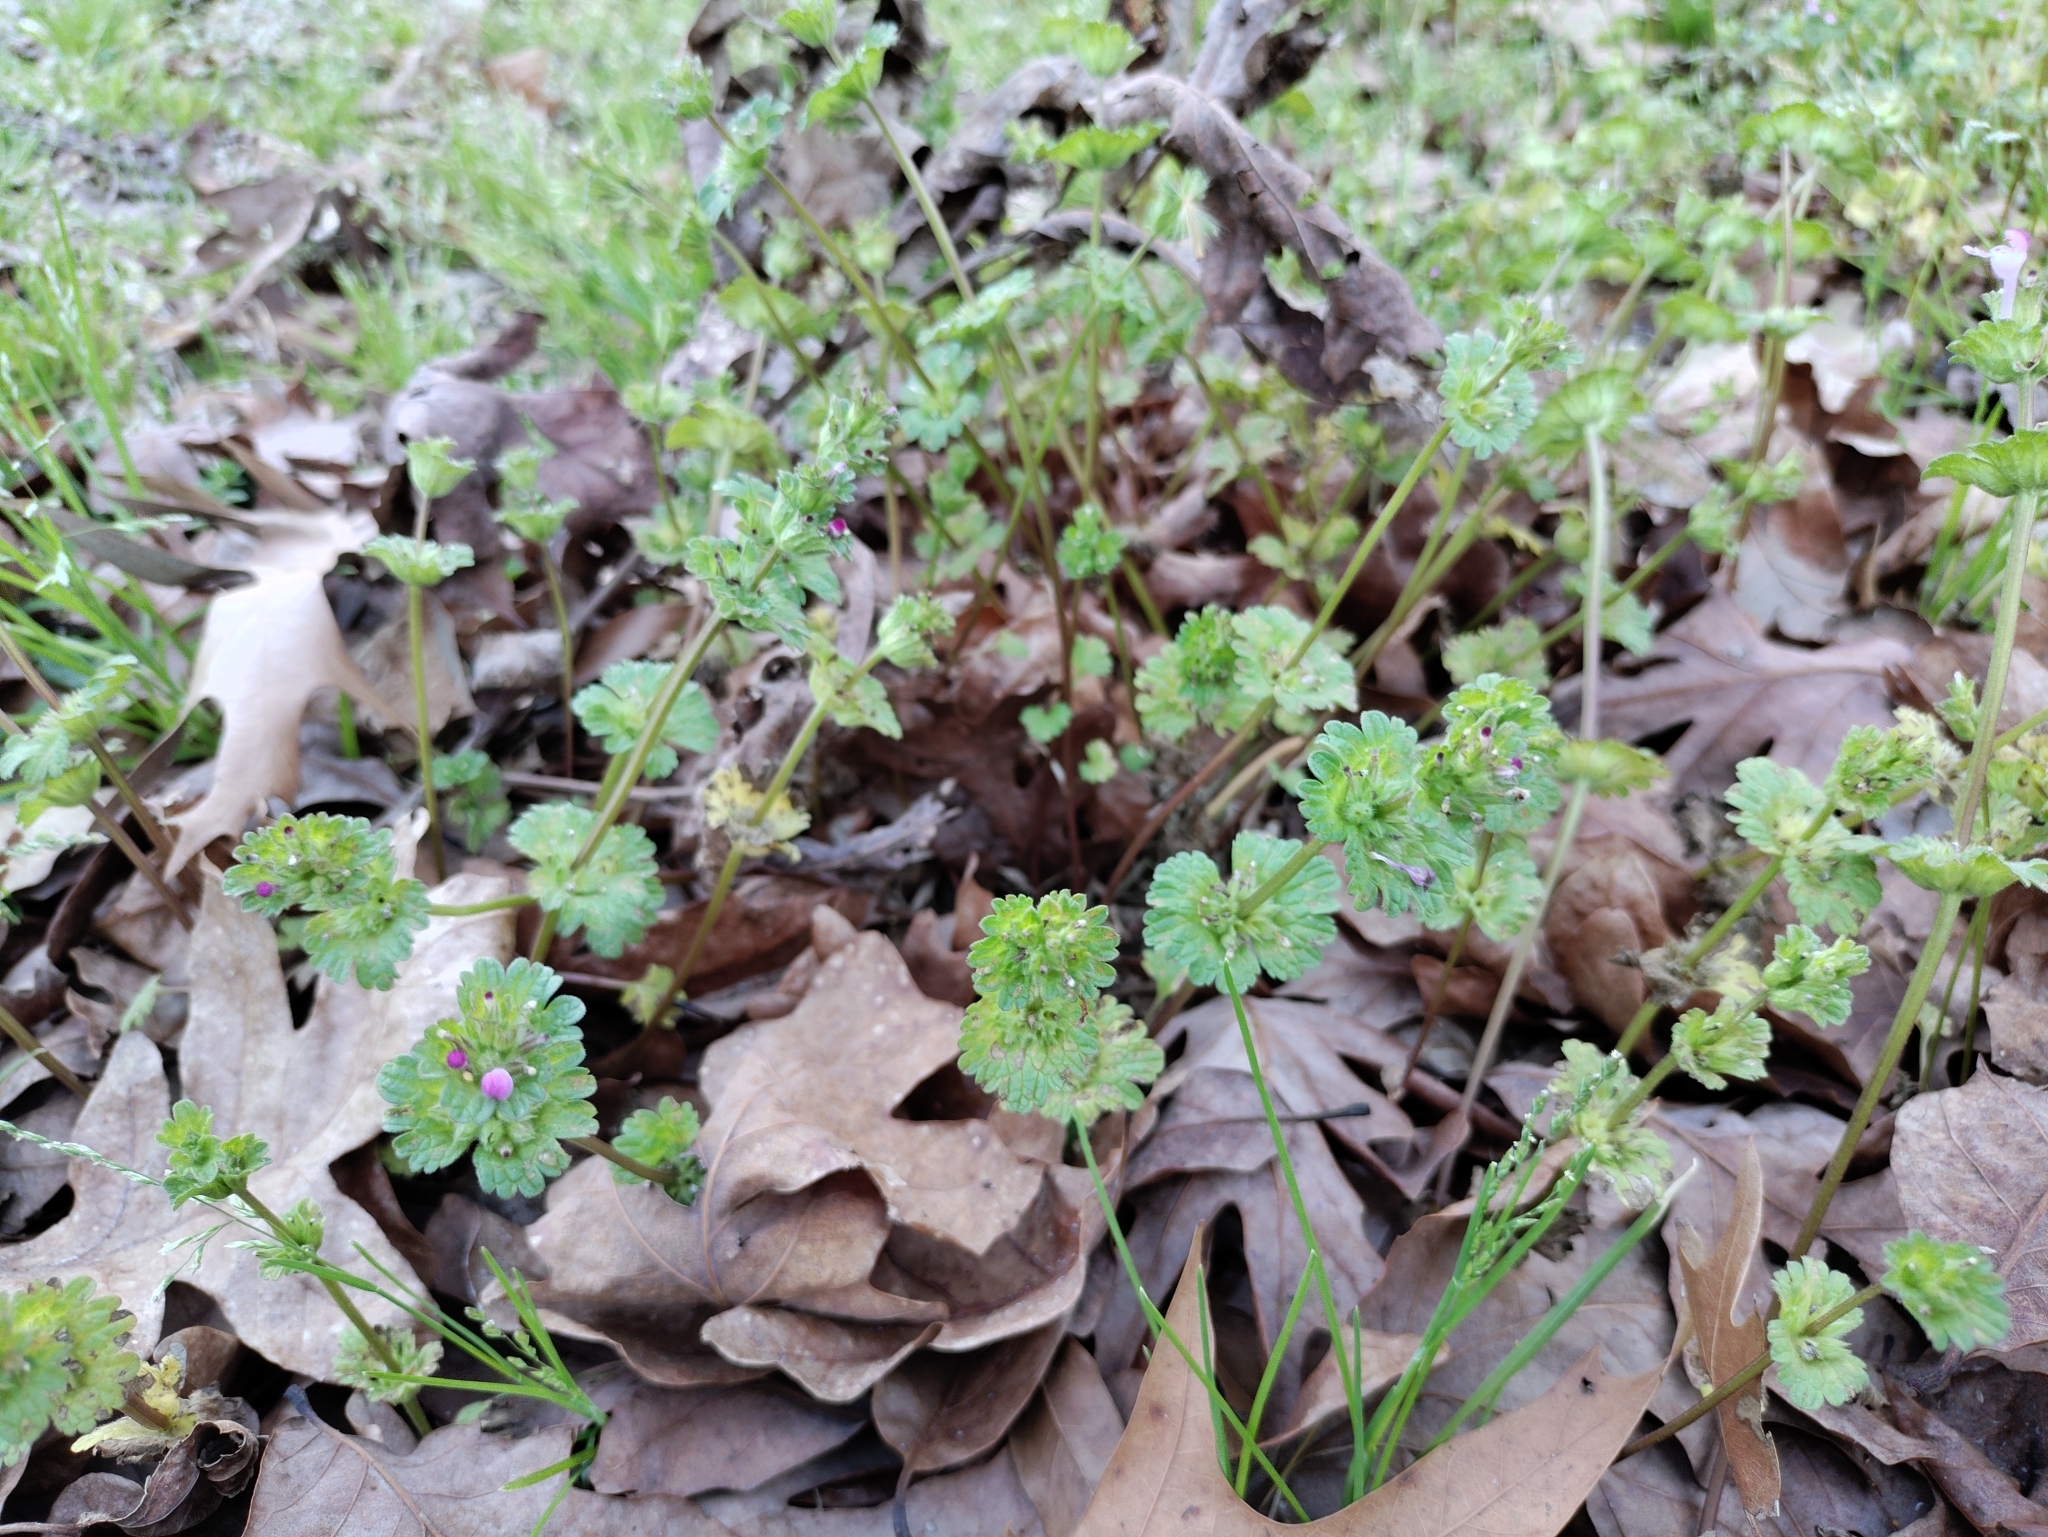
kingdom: Plantae
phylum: Tracheophyta
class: Magnoliopsida
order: Lamiales
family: Lamiaceae
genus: Lamium
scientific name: Lamium amplexicaule
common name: Henbit dead-nettle
